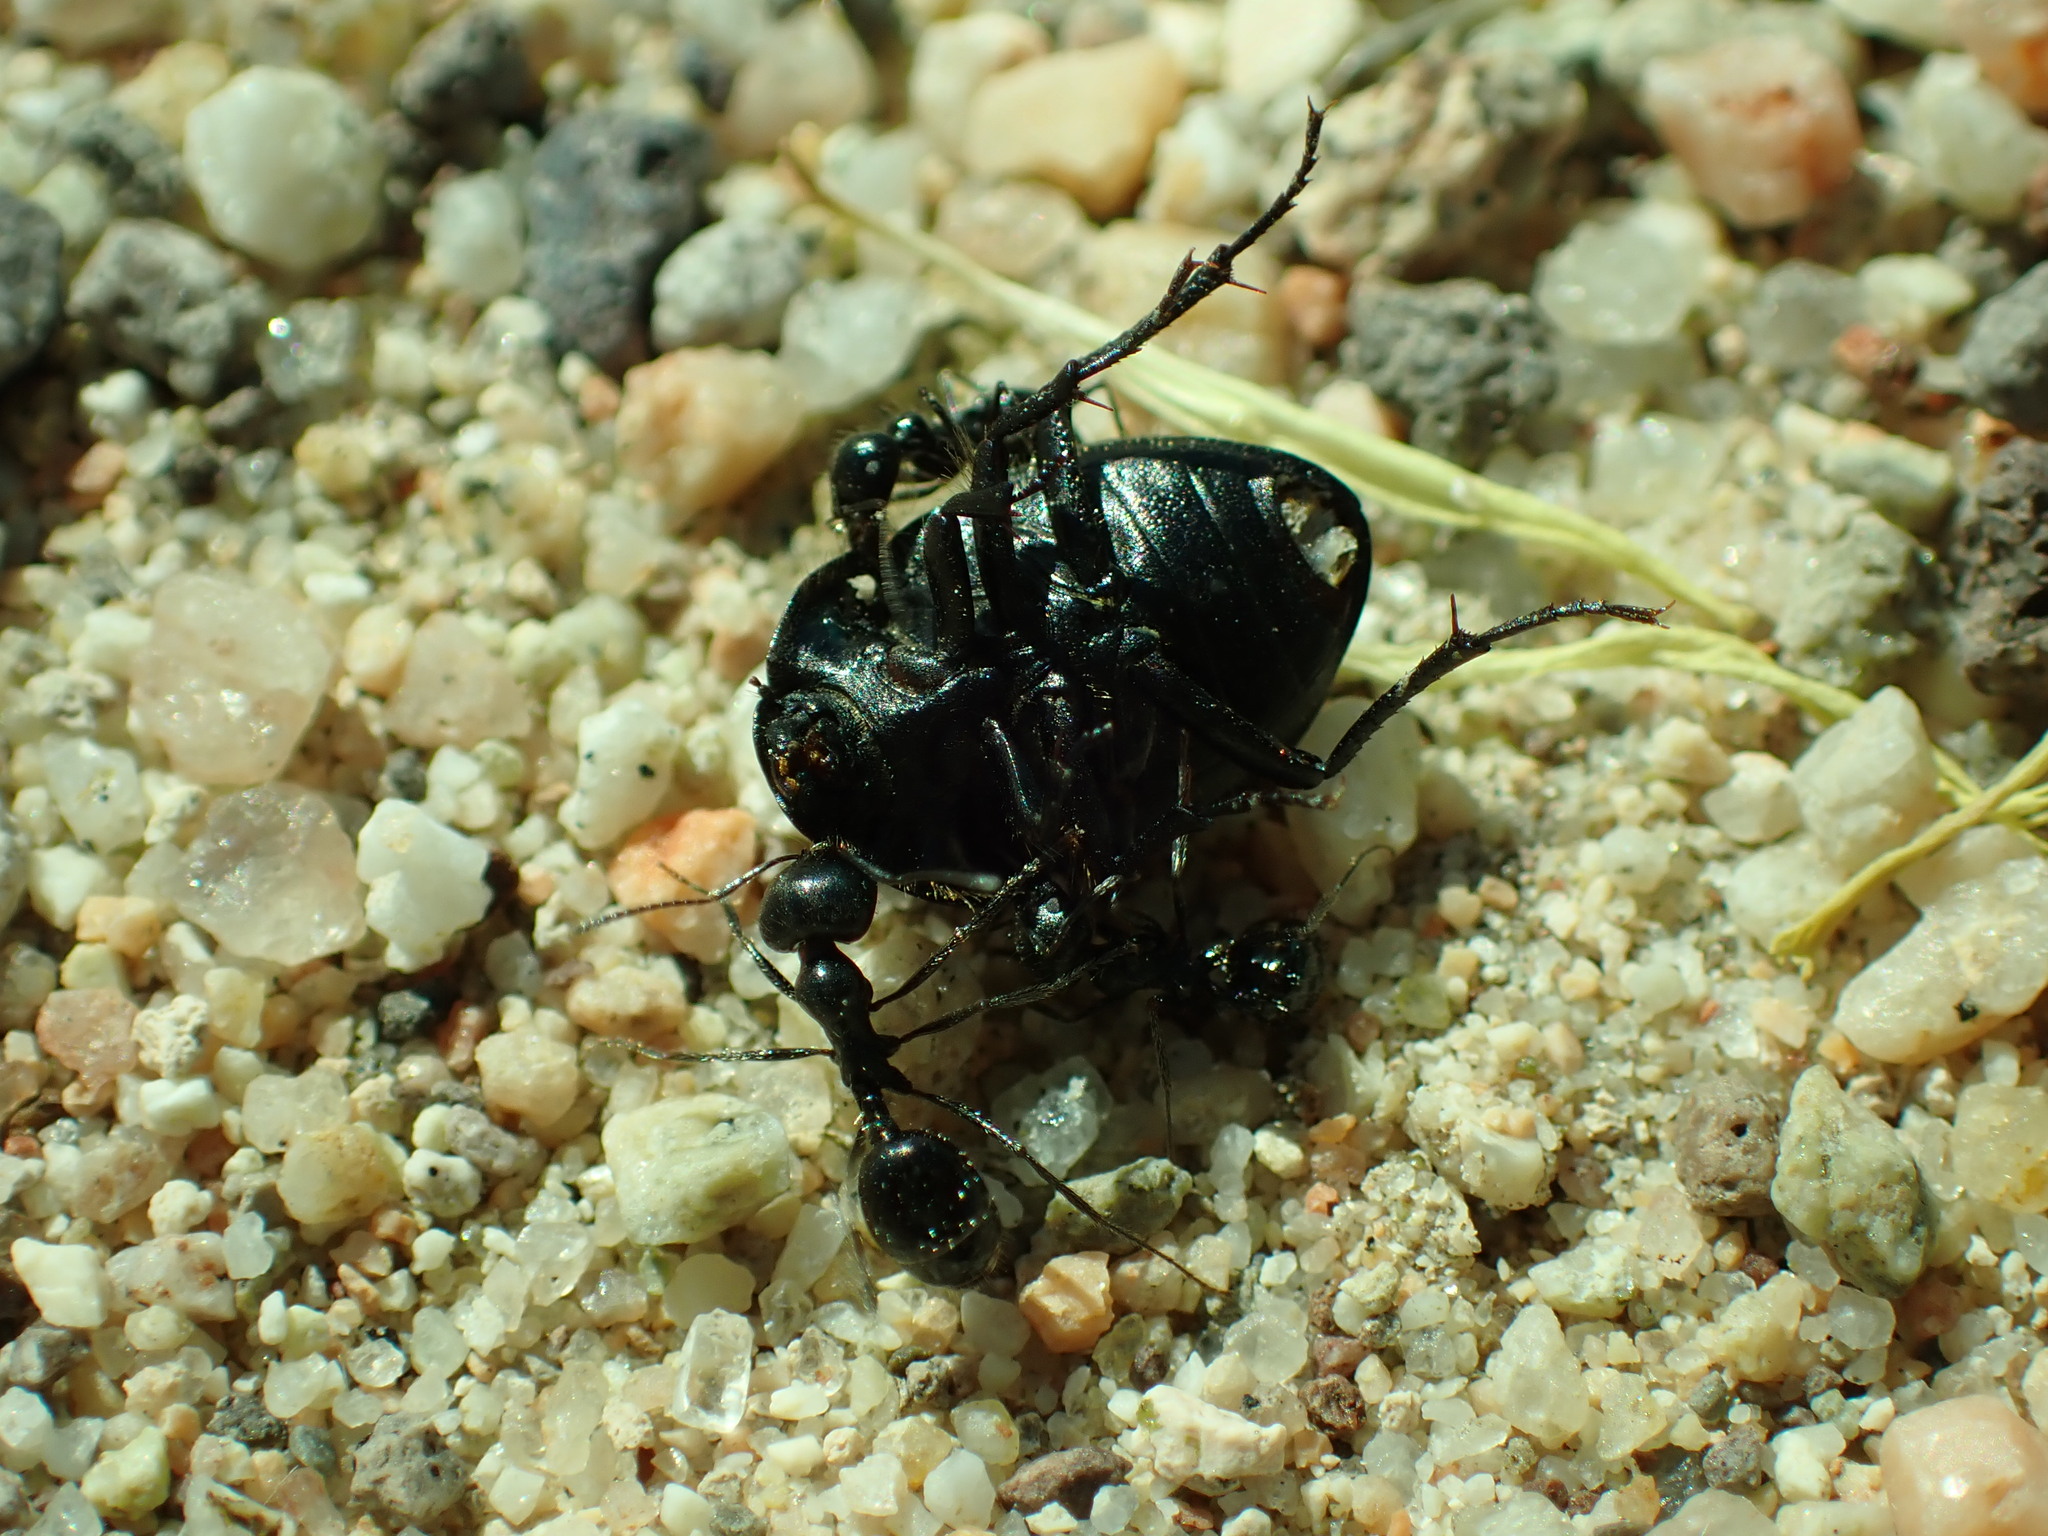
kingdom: Animalia
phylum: Arthropoda
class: Insecta
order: Hymenoptera
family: Formicidae
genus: Messor
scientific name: Messor pergandei
